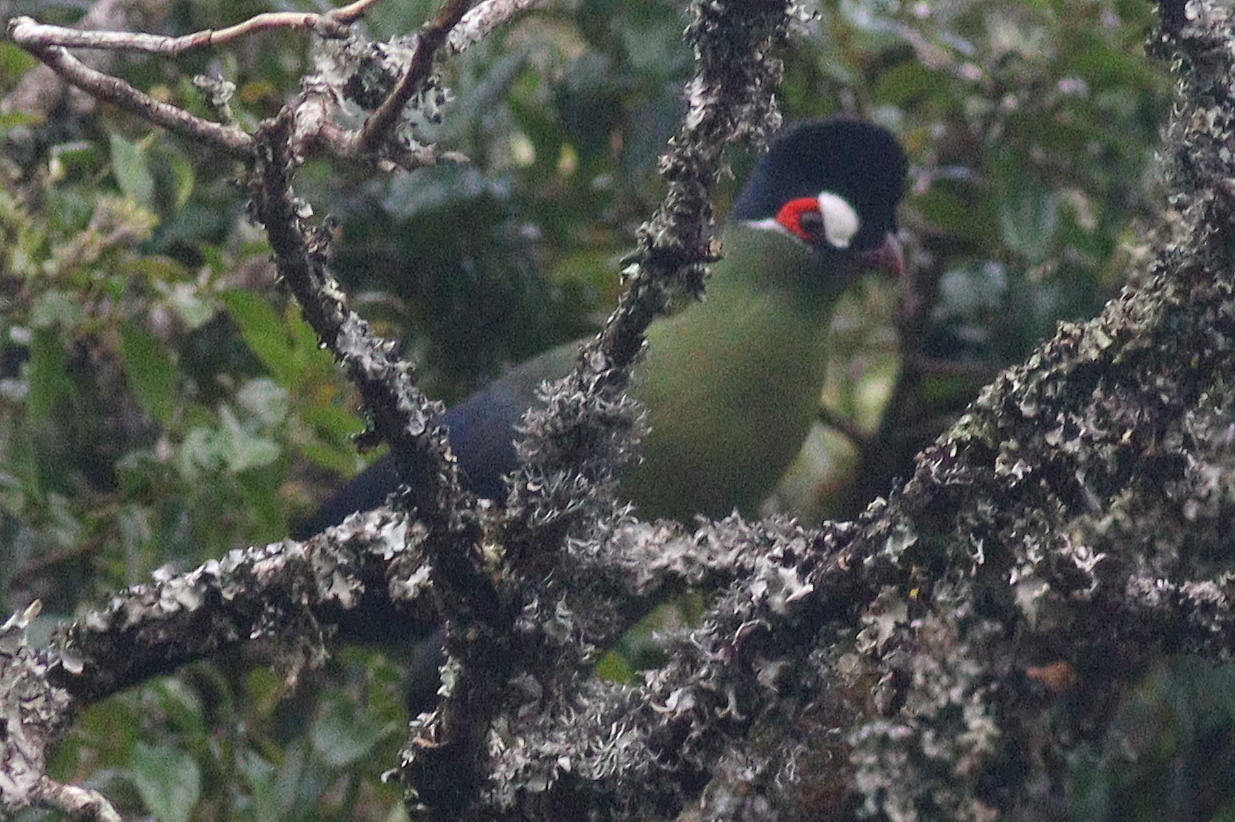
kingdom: Animalia
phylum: Chordata
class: Aves
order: Musophagiformes
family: Musophagidae
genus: Tauraco
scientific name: Tauraco hartlaubi
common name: Hartlaub's turaco
